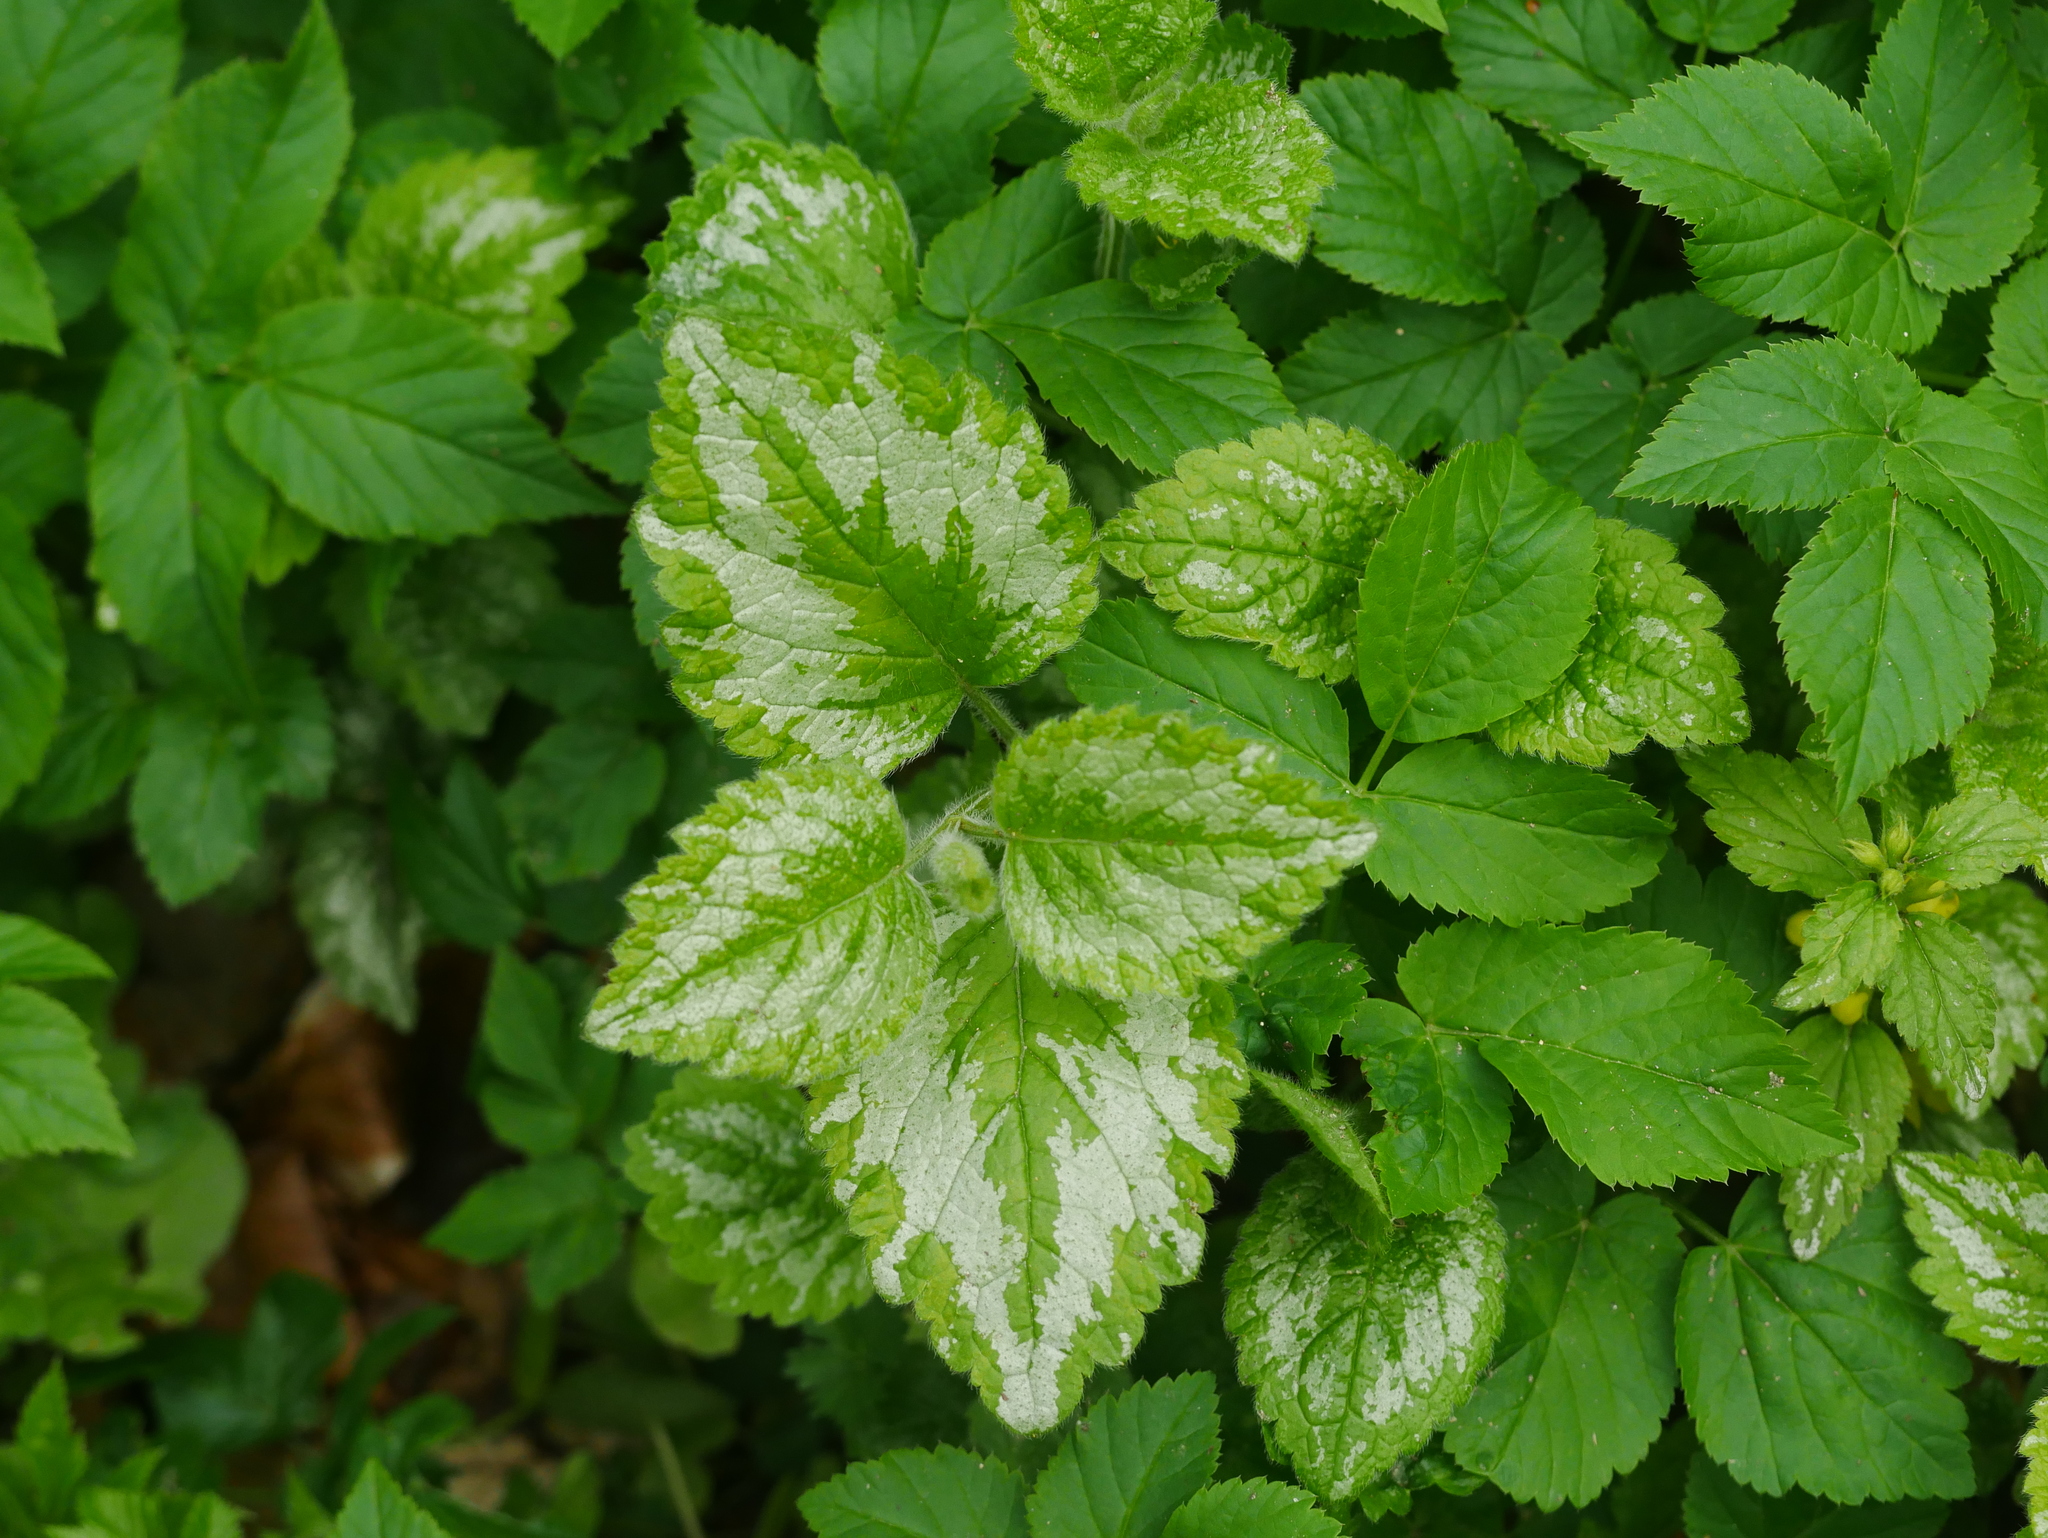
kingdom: Plantae
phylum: Tracheophyta
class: Magnoliopsida
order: Lamiales
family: Lamiaceae
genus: Lamium
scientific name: Lamium galeobdolon
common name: Yellow archangel
